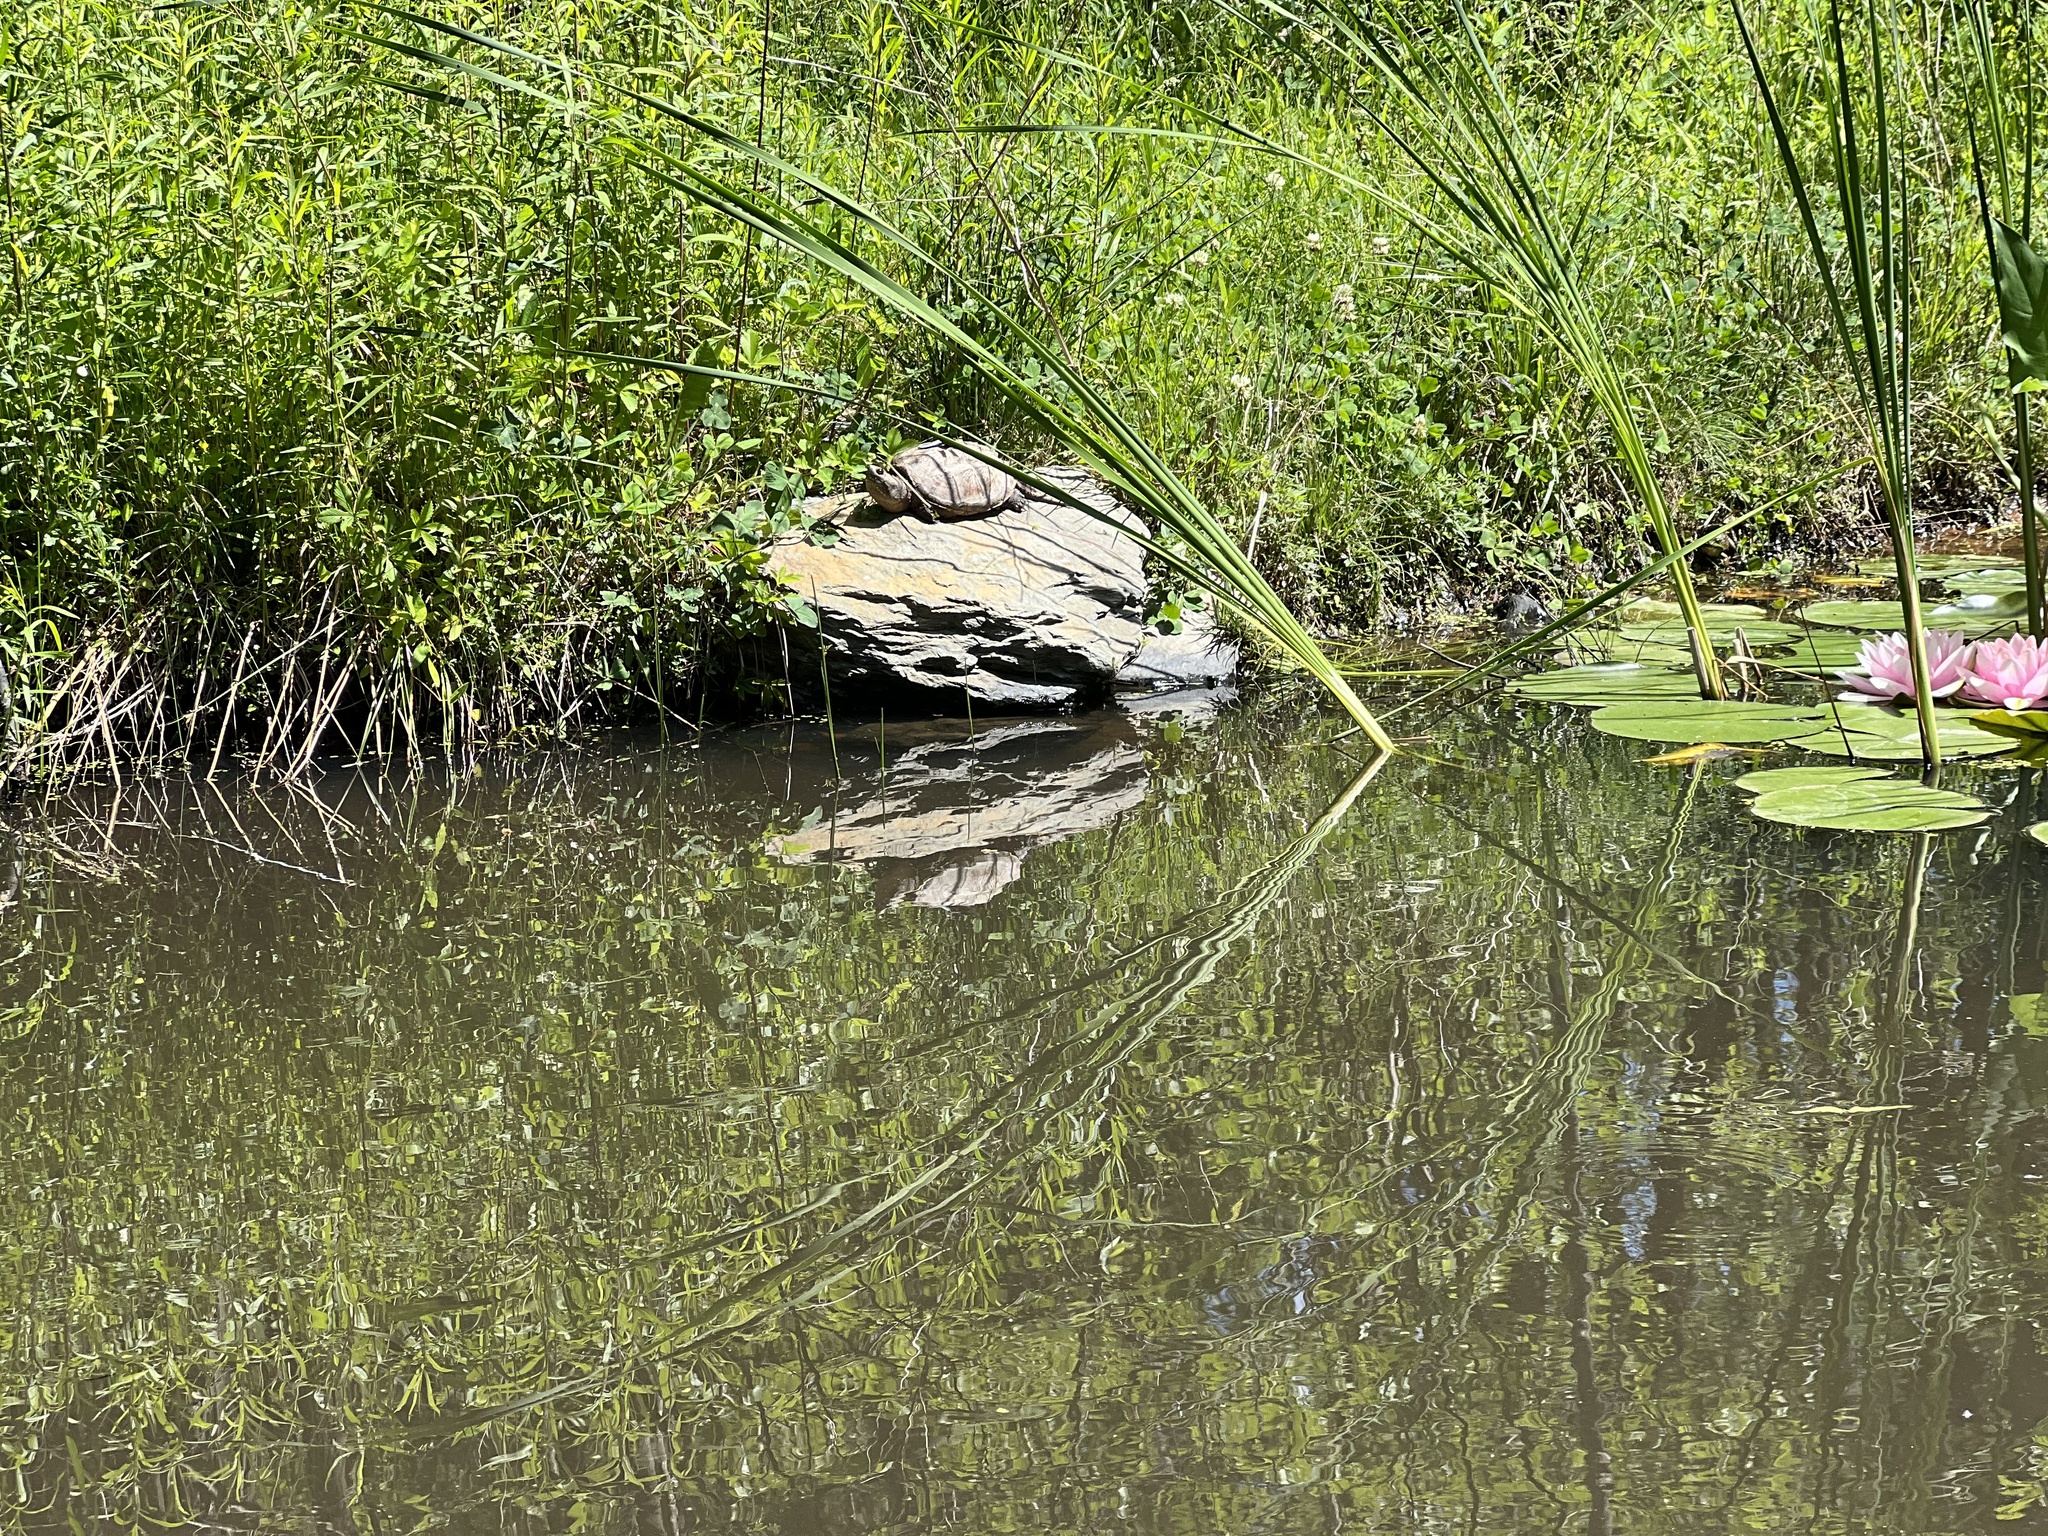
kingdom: Animalia
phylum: Chordata
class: Testudines
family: Chelydridae
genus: Chelydra
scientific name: Chelydra serpentina
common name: Common snapping turtle
